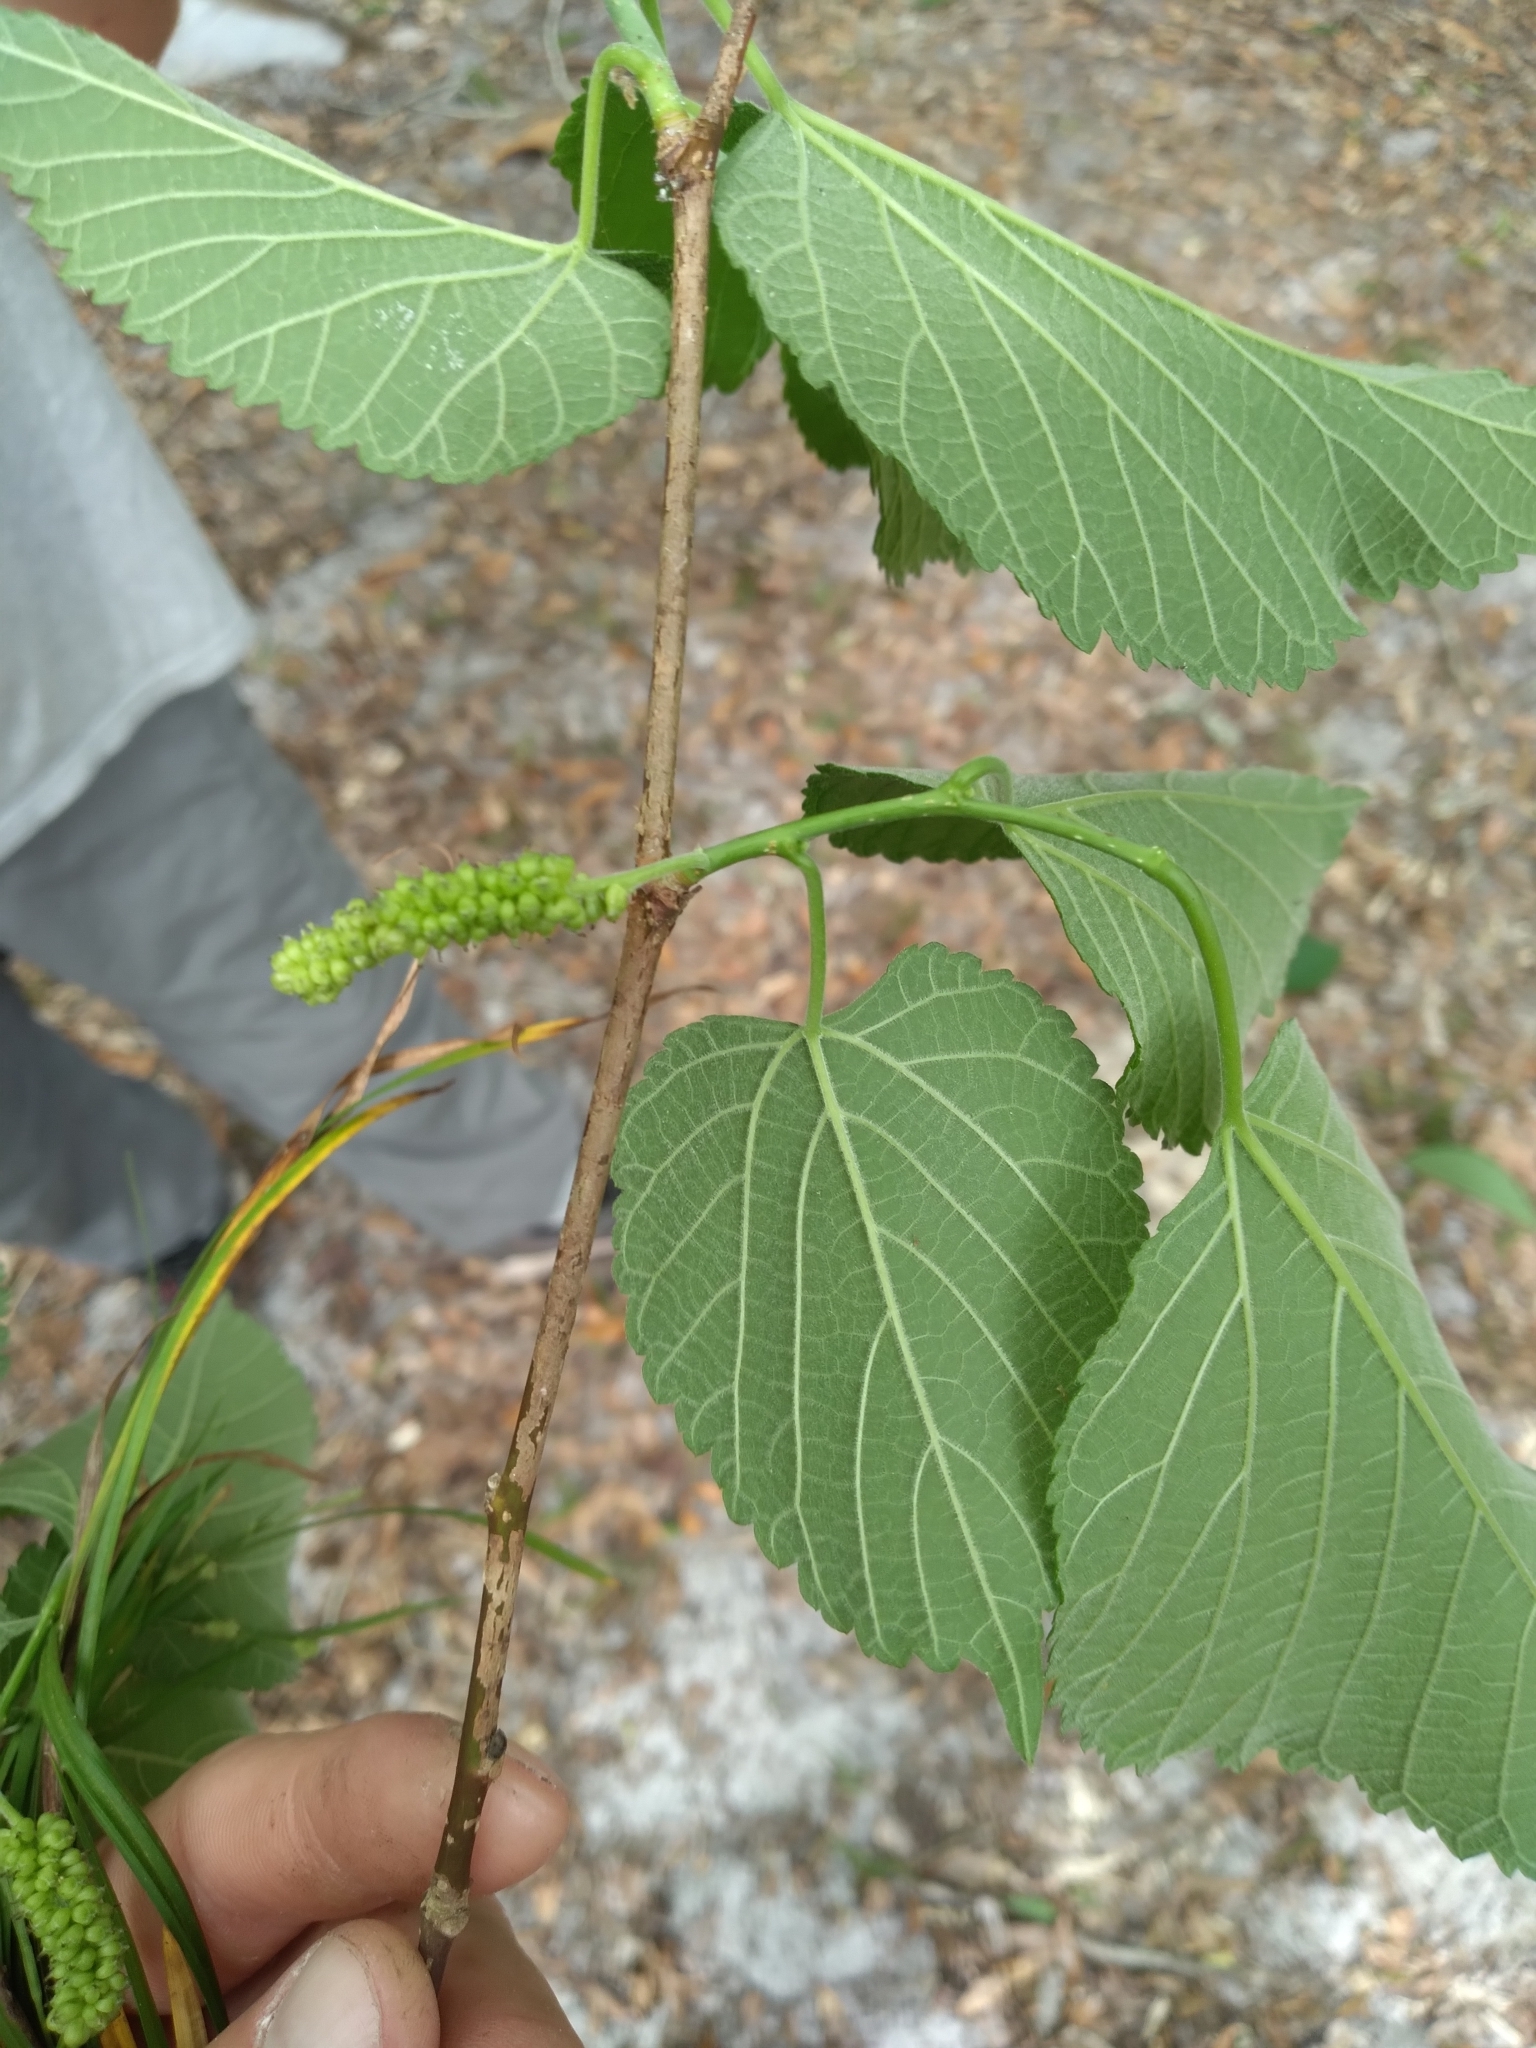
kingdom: Plantae
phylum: Tracheophyta
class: Magnoliopsida
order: Rosales
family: Moraceae
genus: Morus
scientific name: Morus rubra
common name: Red mulberry
